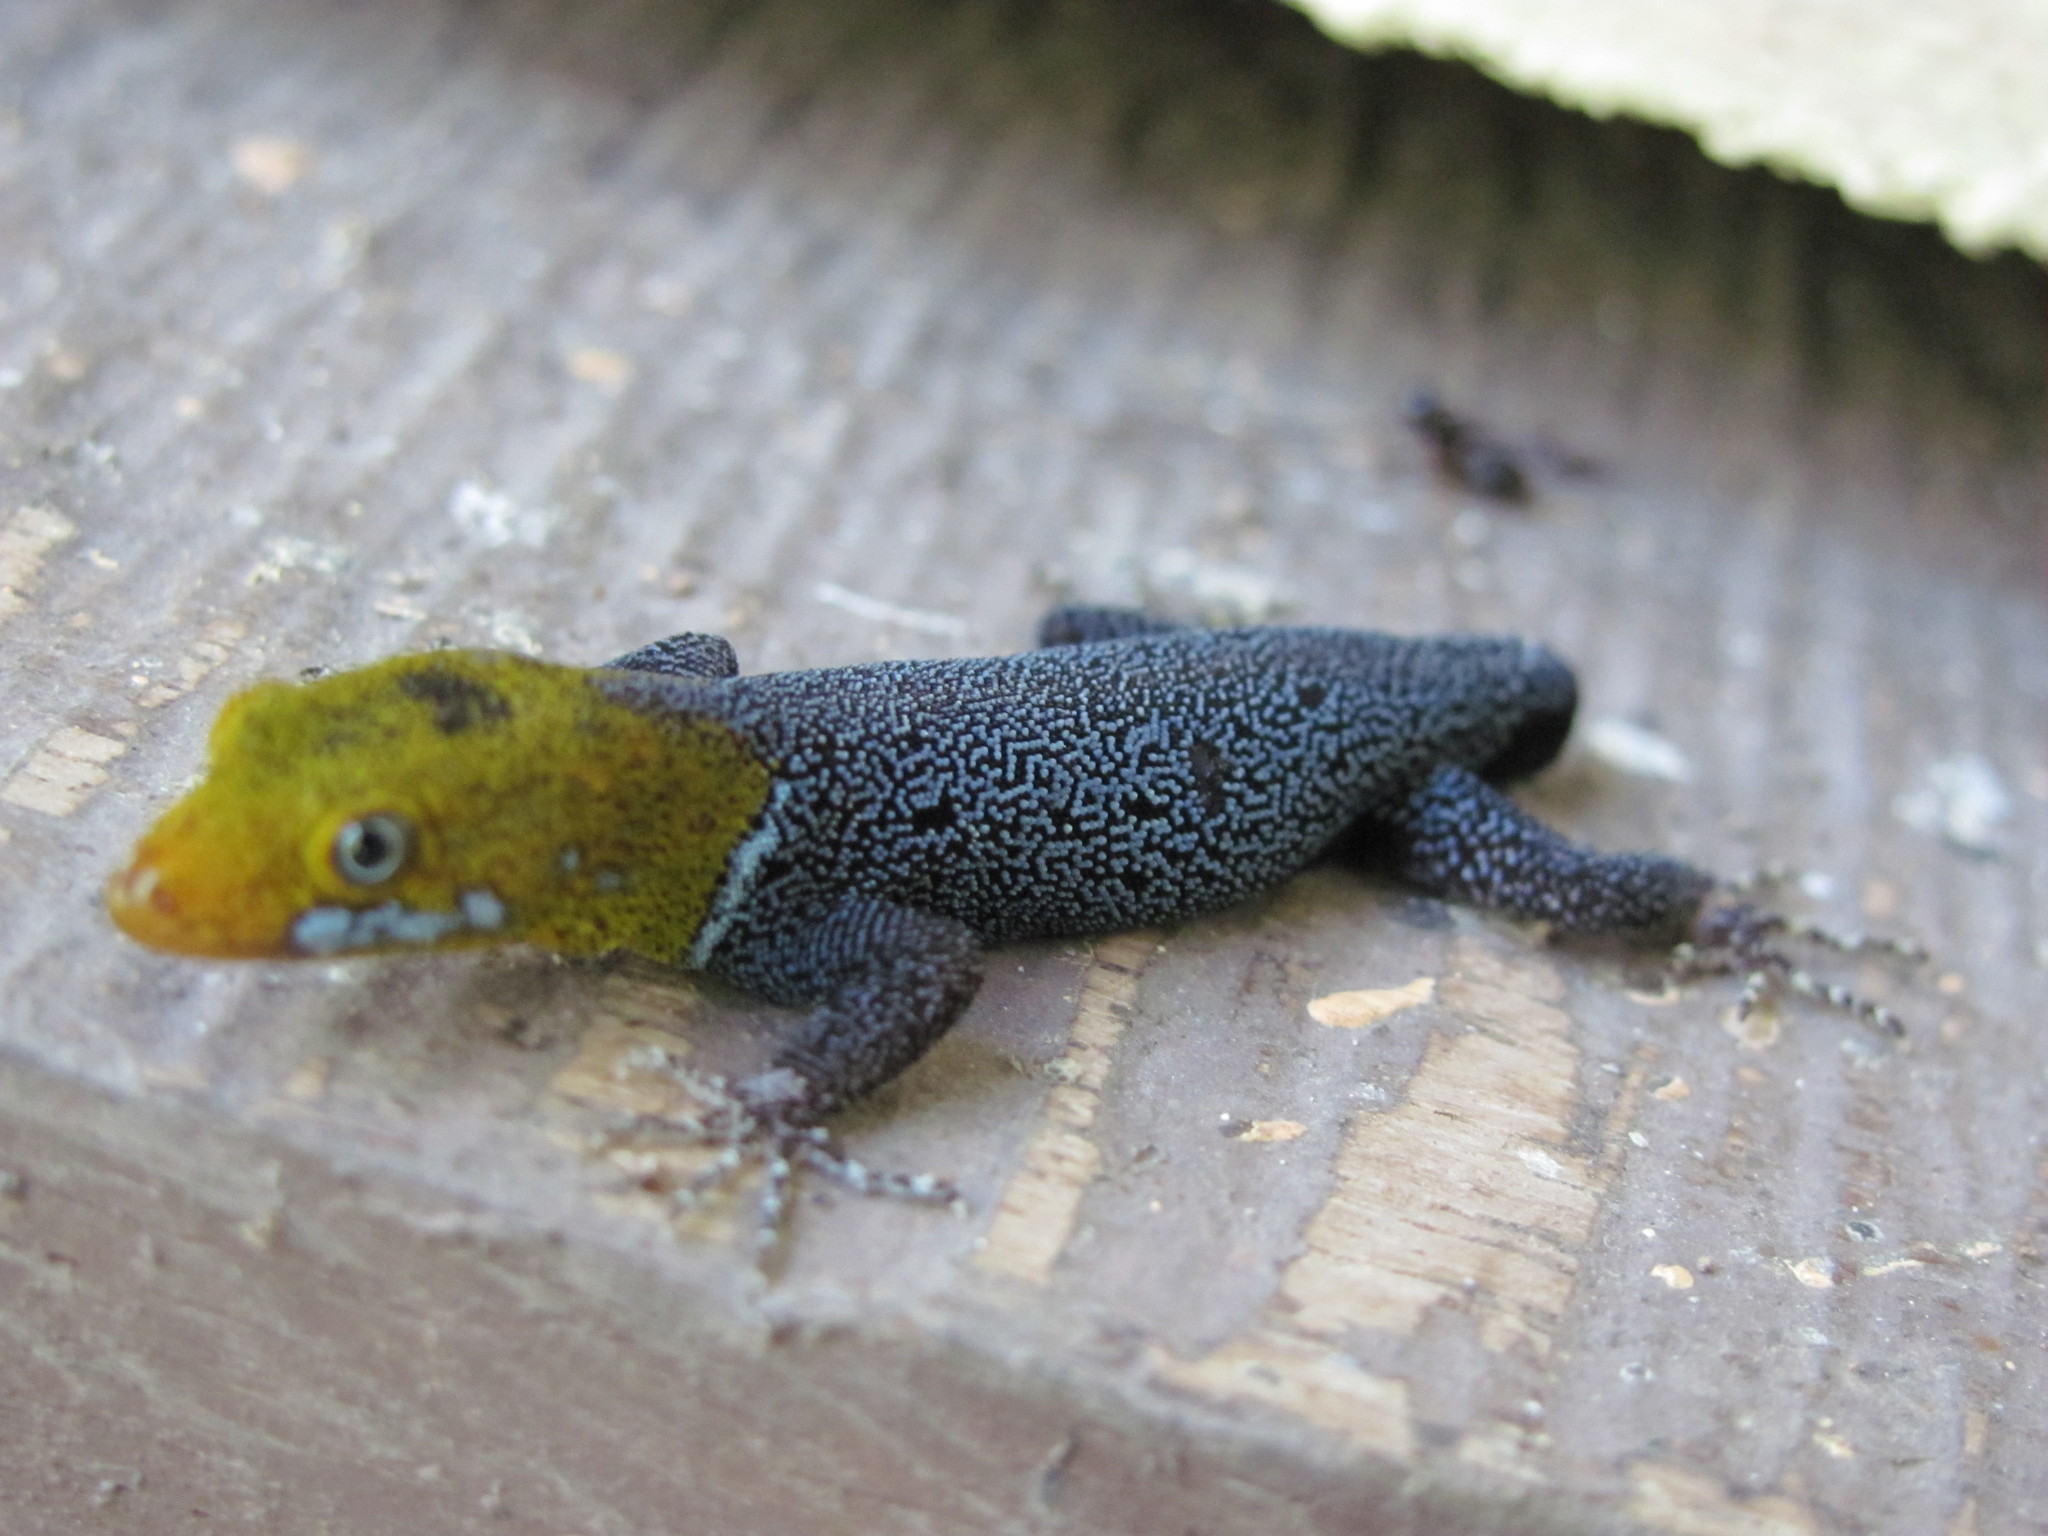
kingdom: Animalia
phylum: Chordata
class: Squamata
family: Sphaerodactylidae
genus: Gonatodes
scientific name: Gonatodes albogularis
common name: Yellow-headed gecko
